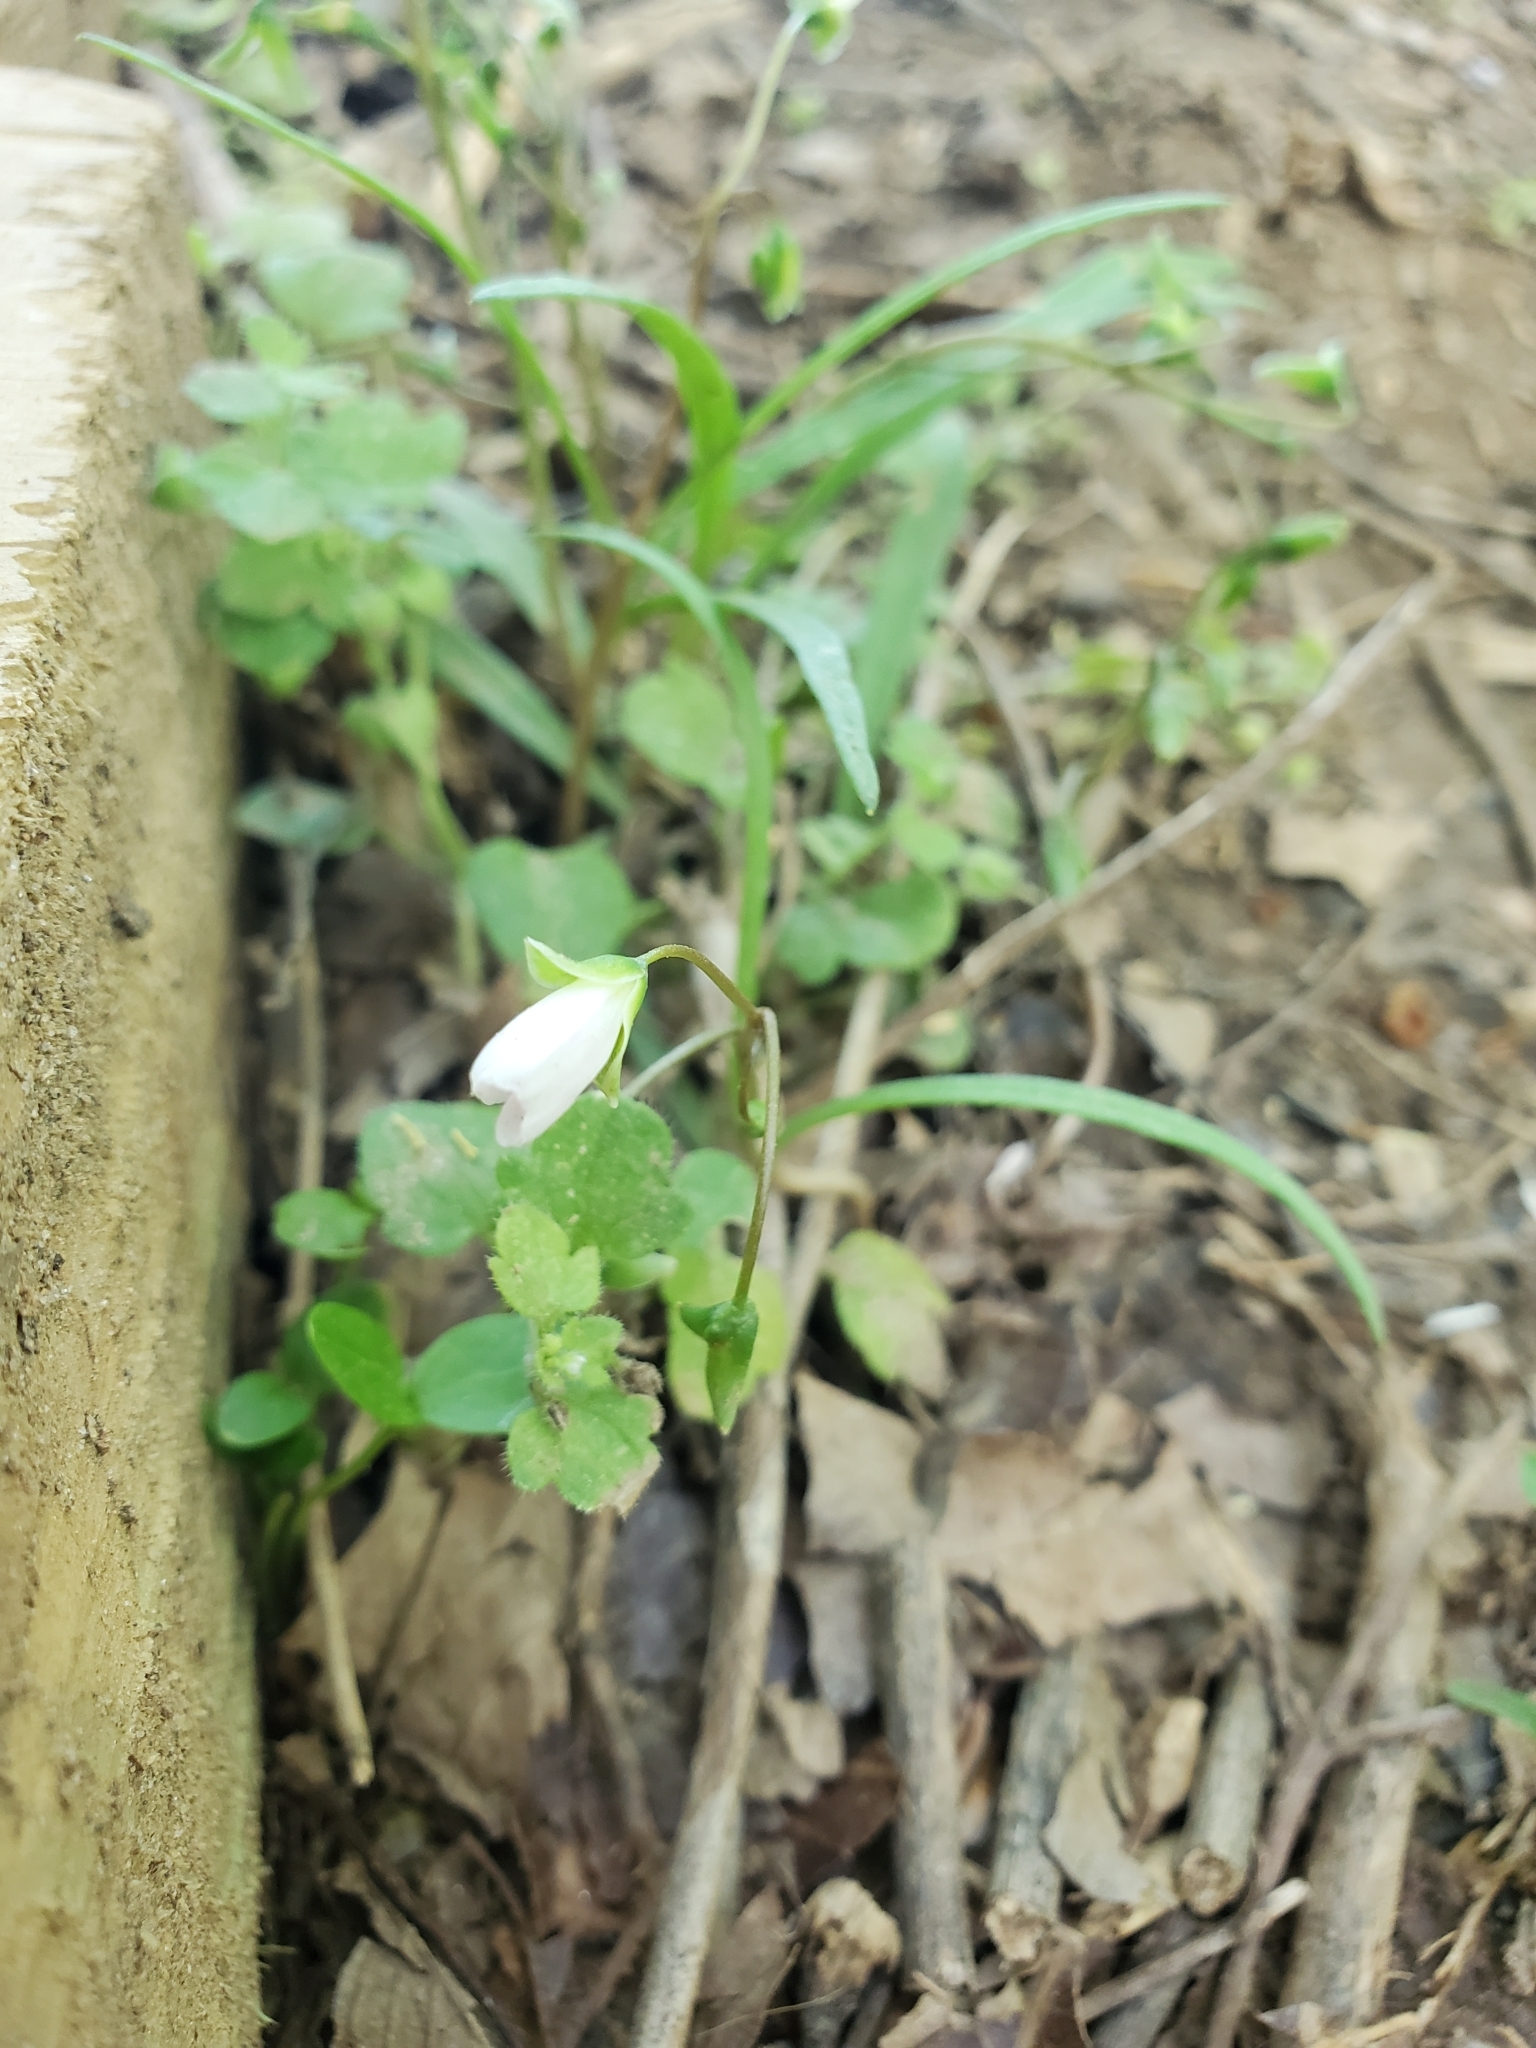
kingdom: Plantae
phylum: Tracheophyta
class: Magnoliopsida
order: Caryophyllales
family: Montiaceae
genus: Claytonia
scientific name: Claytonia virginica
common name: Virginia springbeauty
